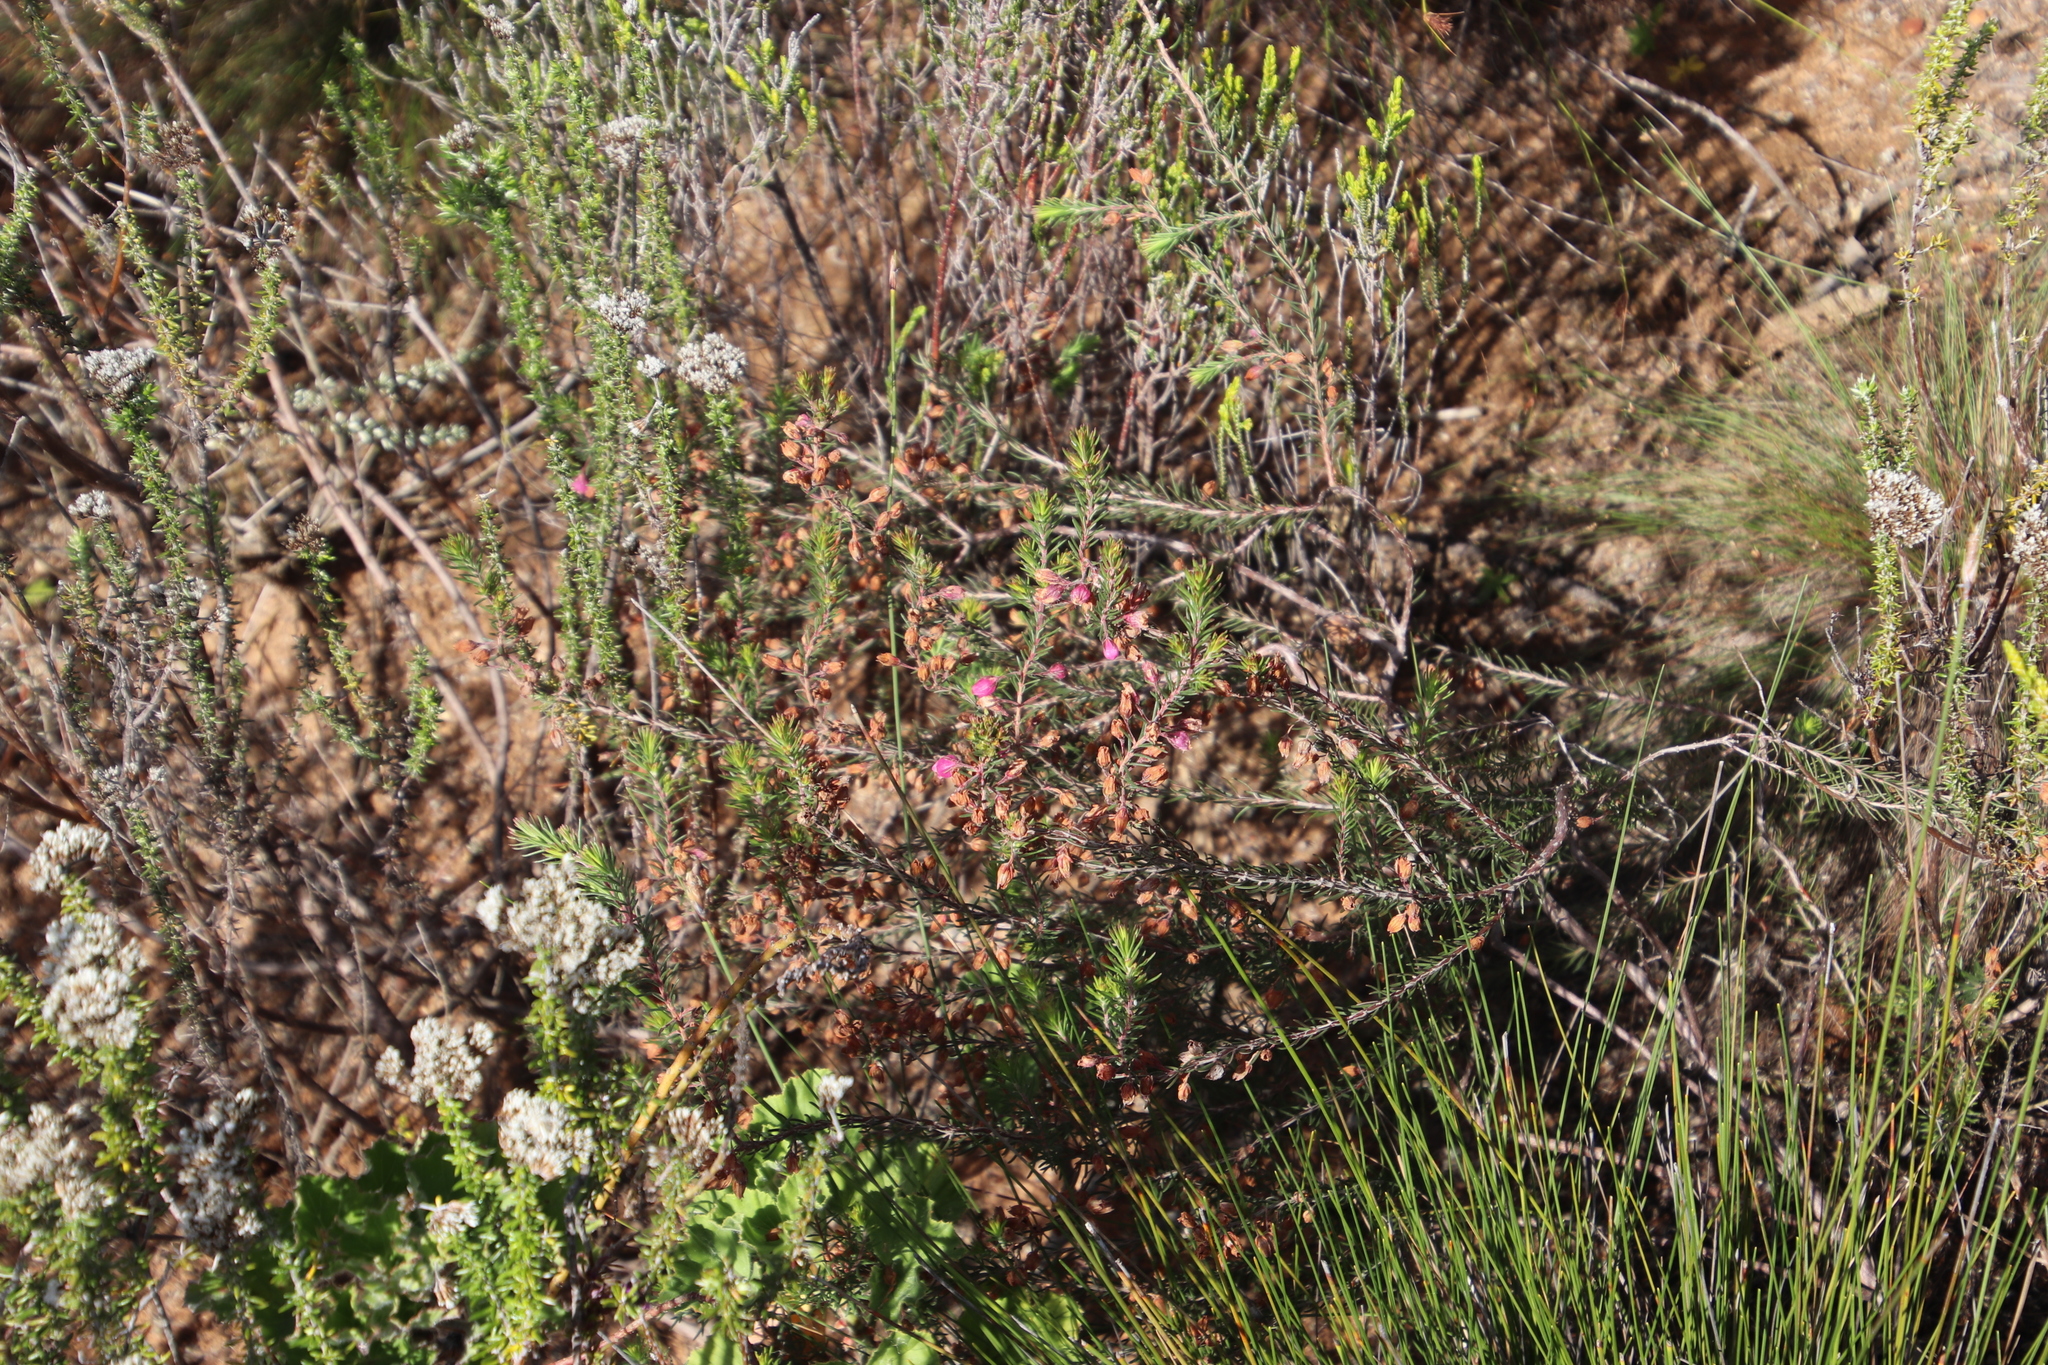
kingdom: Plantae
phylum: Tracheophyta
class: Magnoliopsida
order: Ericales
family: Ericaceae
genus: Erica
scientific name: Erica viscaria
